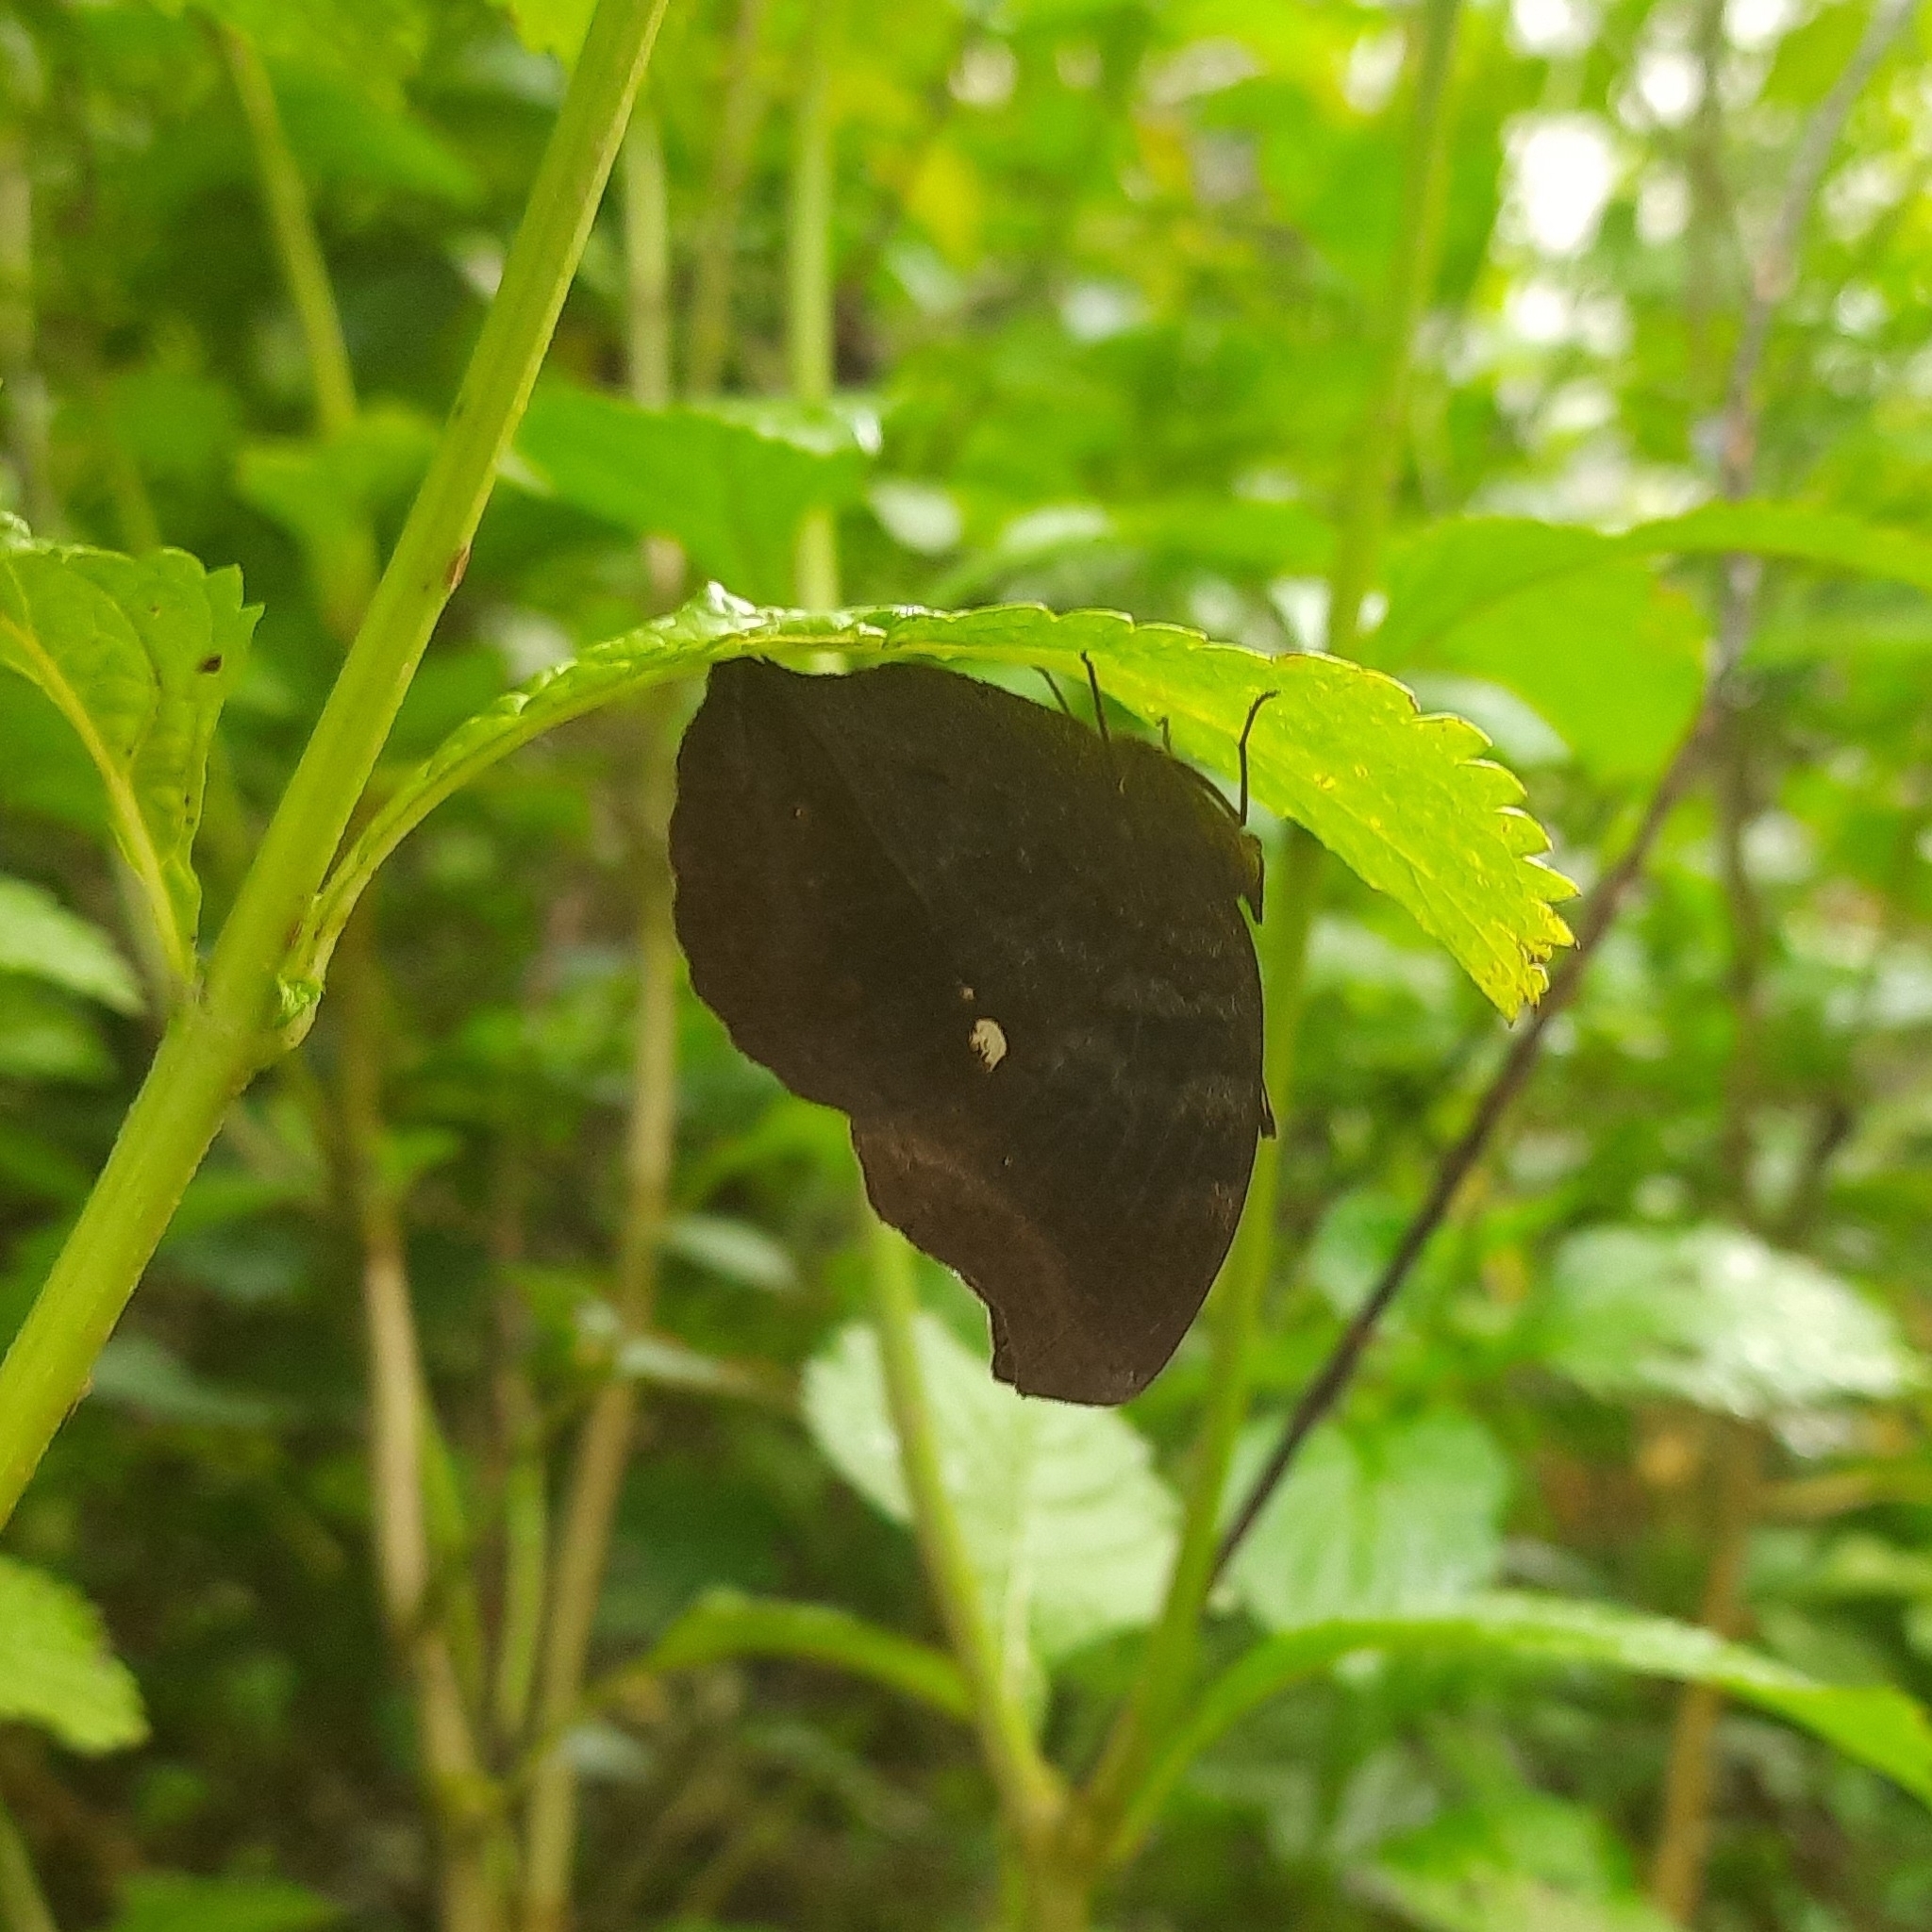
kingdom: Animalia
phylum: Arthropoda
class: Insecta
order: Lepidoptera
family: Nymphalidae
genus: Junonia
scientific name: Junonia iphita
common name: Chocolate pansy
